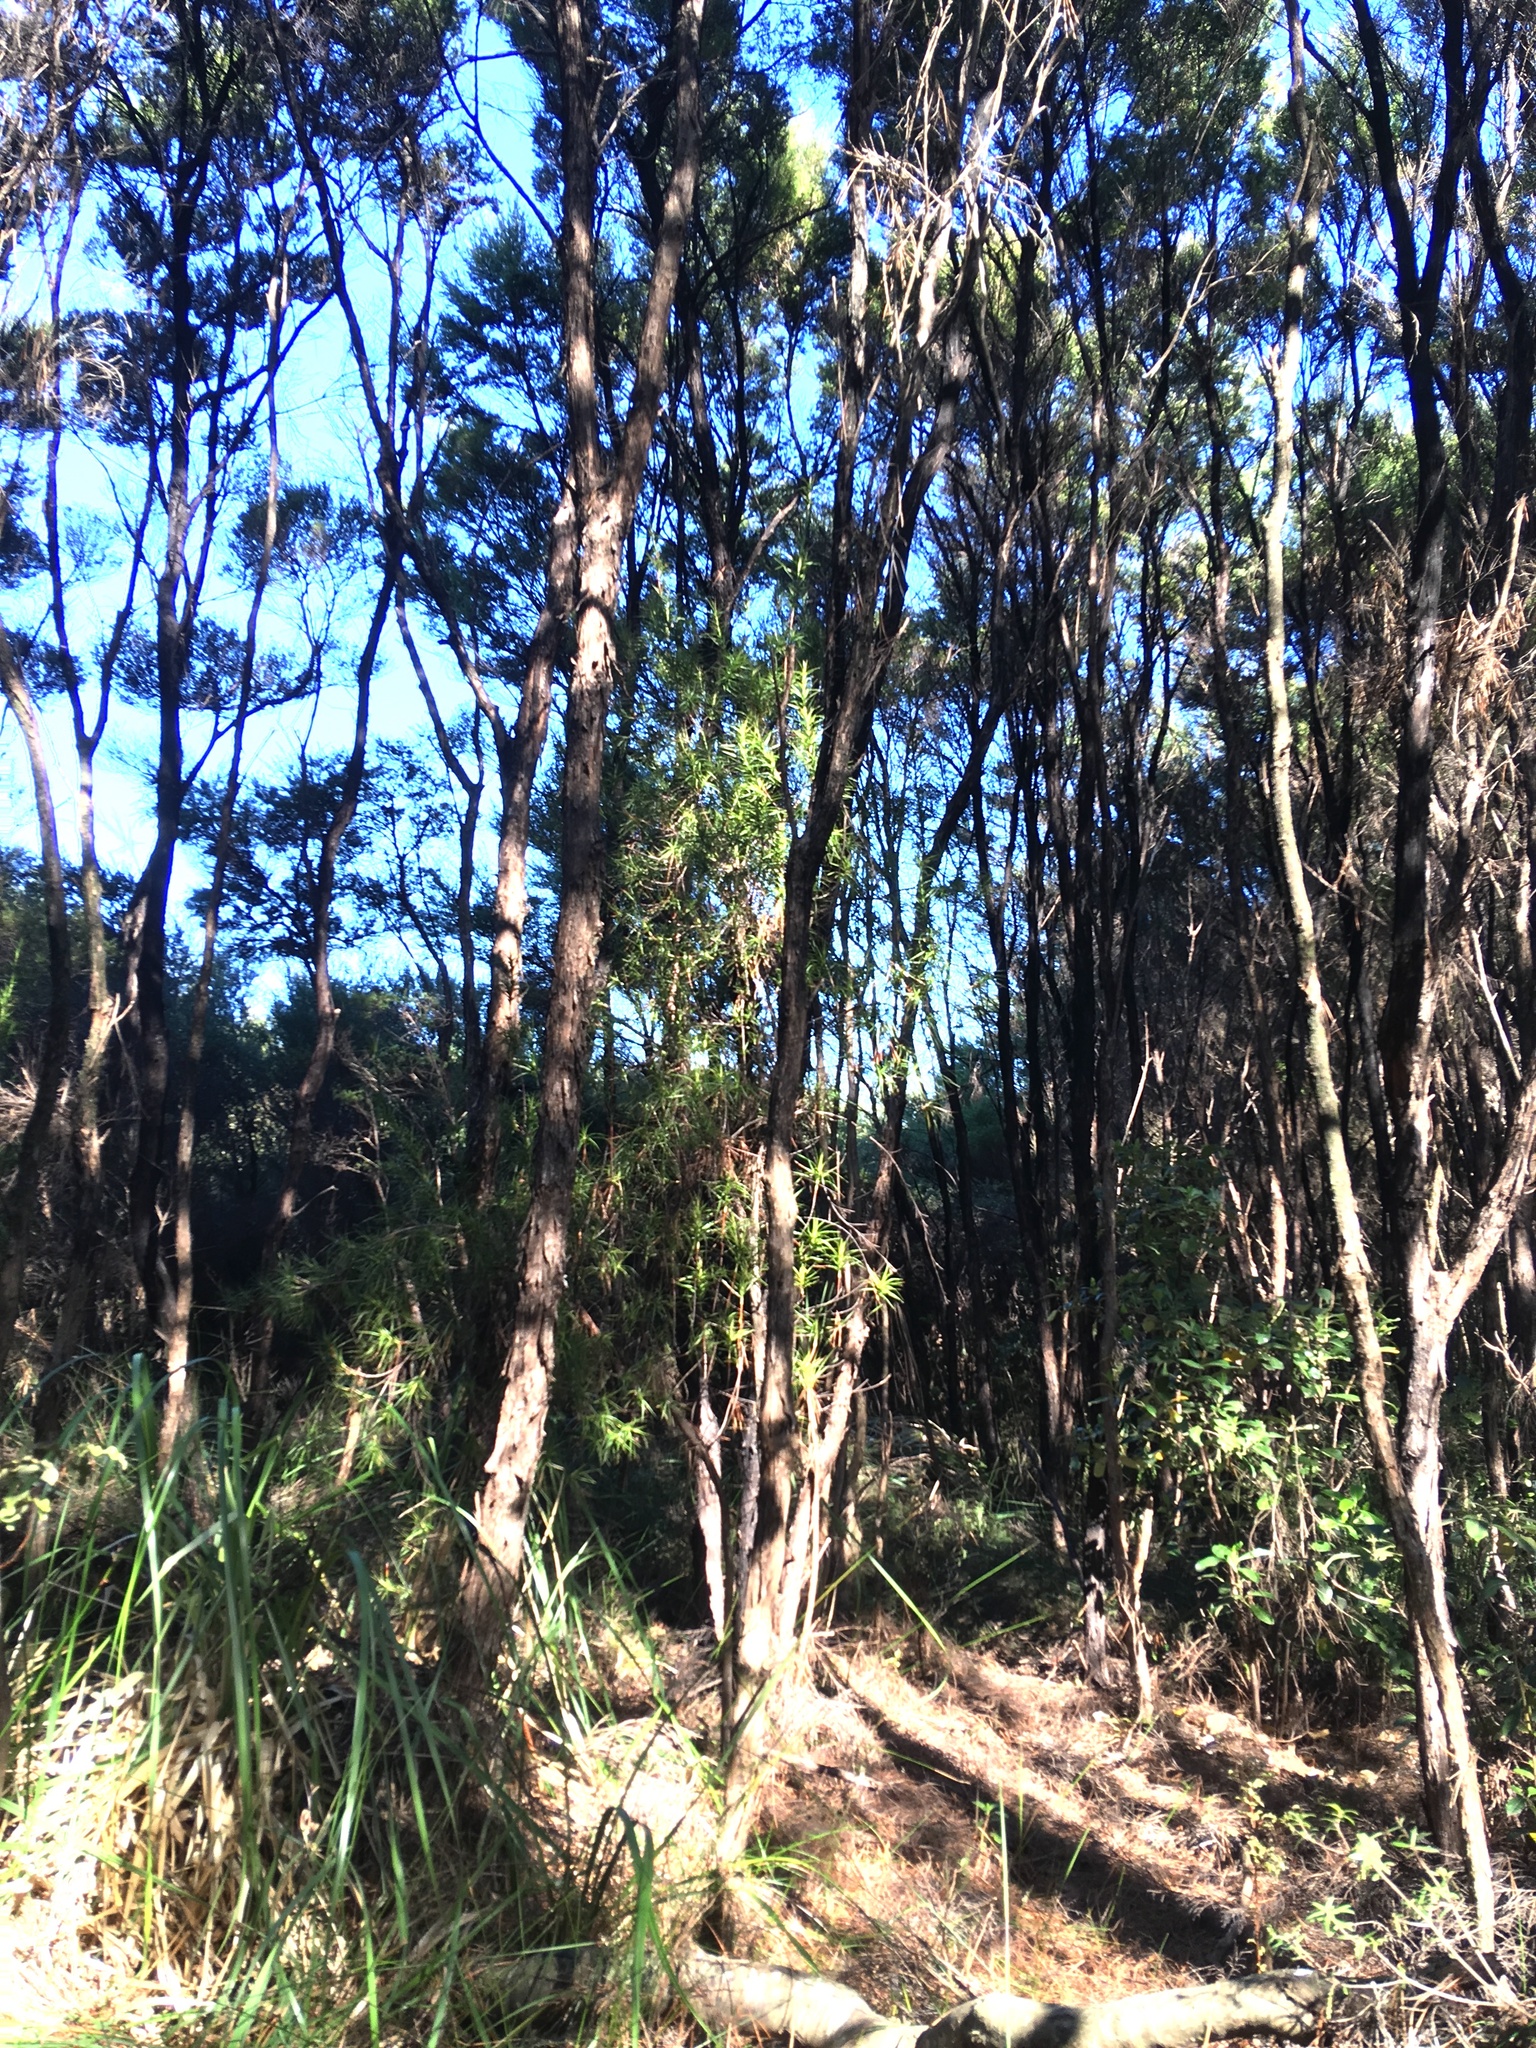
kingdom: Plantae
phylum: Tracheophyta
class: Magnoliopsida
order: Ericales
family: Ericaceae
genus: Dracophyllum
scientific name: Dracophyllum sinclairii
